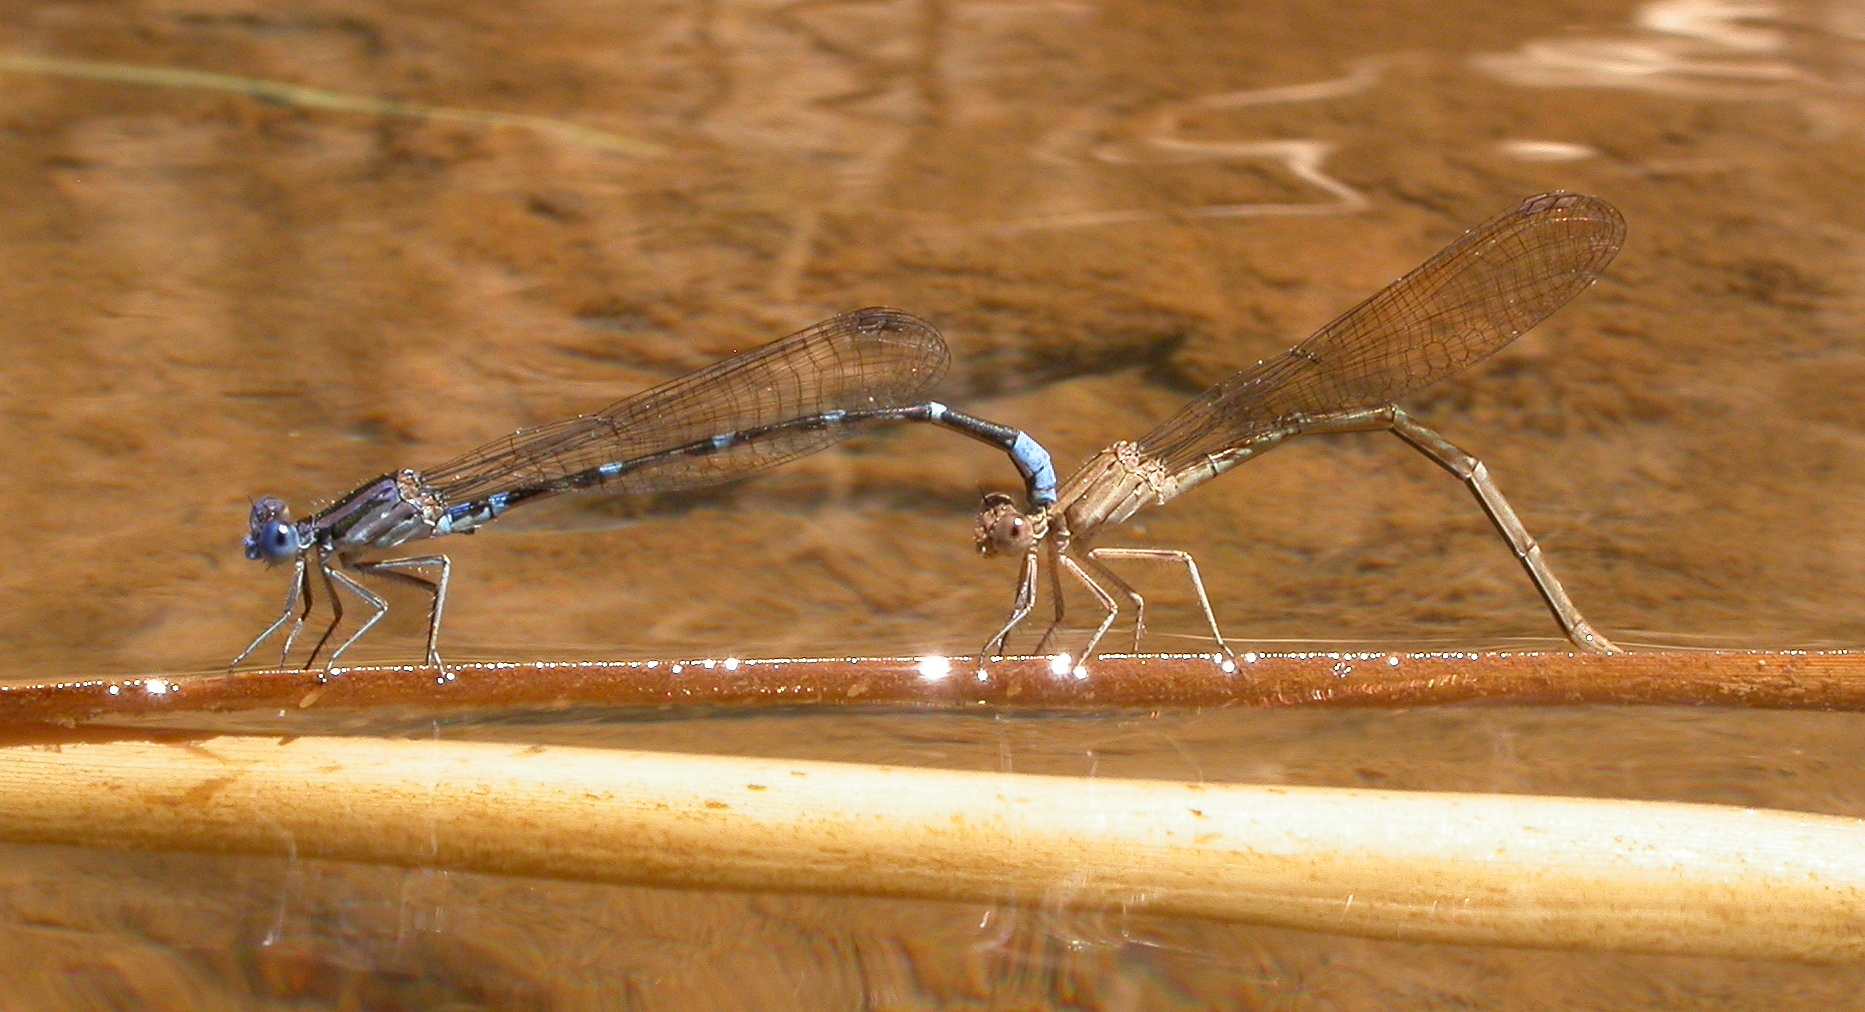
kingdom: Animalia
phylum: Arthropoda
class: Insecta
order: Odonata
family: Coenagrionidae
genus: Argia
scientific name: Argia sedula
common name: Blue-ringed dancer
